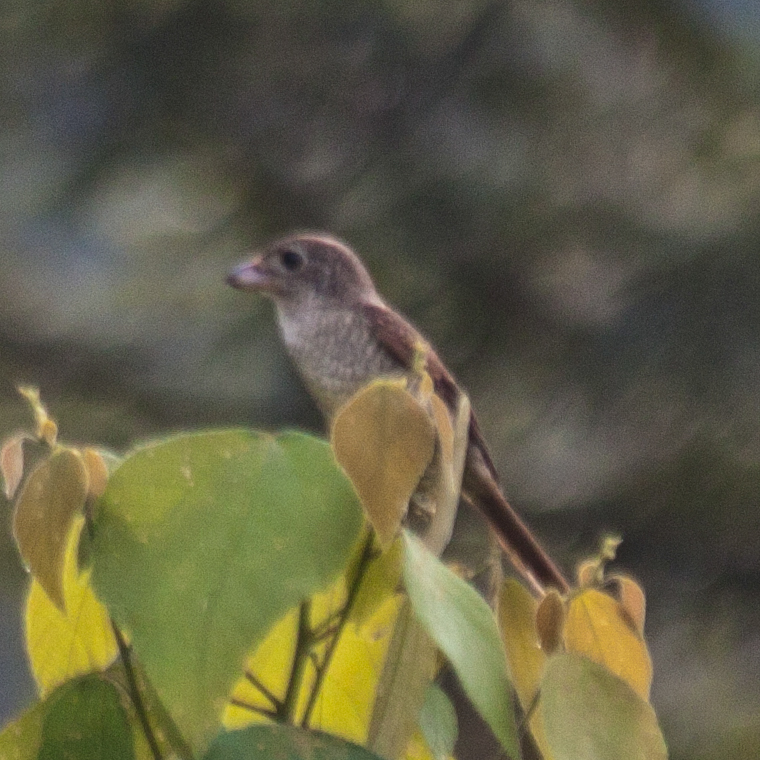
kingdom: Animalia
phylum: Chordata
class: Aves
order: Passeriformes
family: Laniidae
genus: Lanius
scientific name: Lanius tigrinus
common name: Tiger shrike
